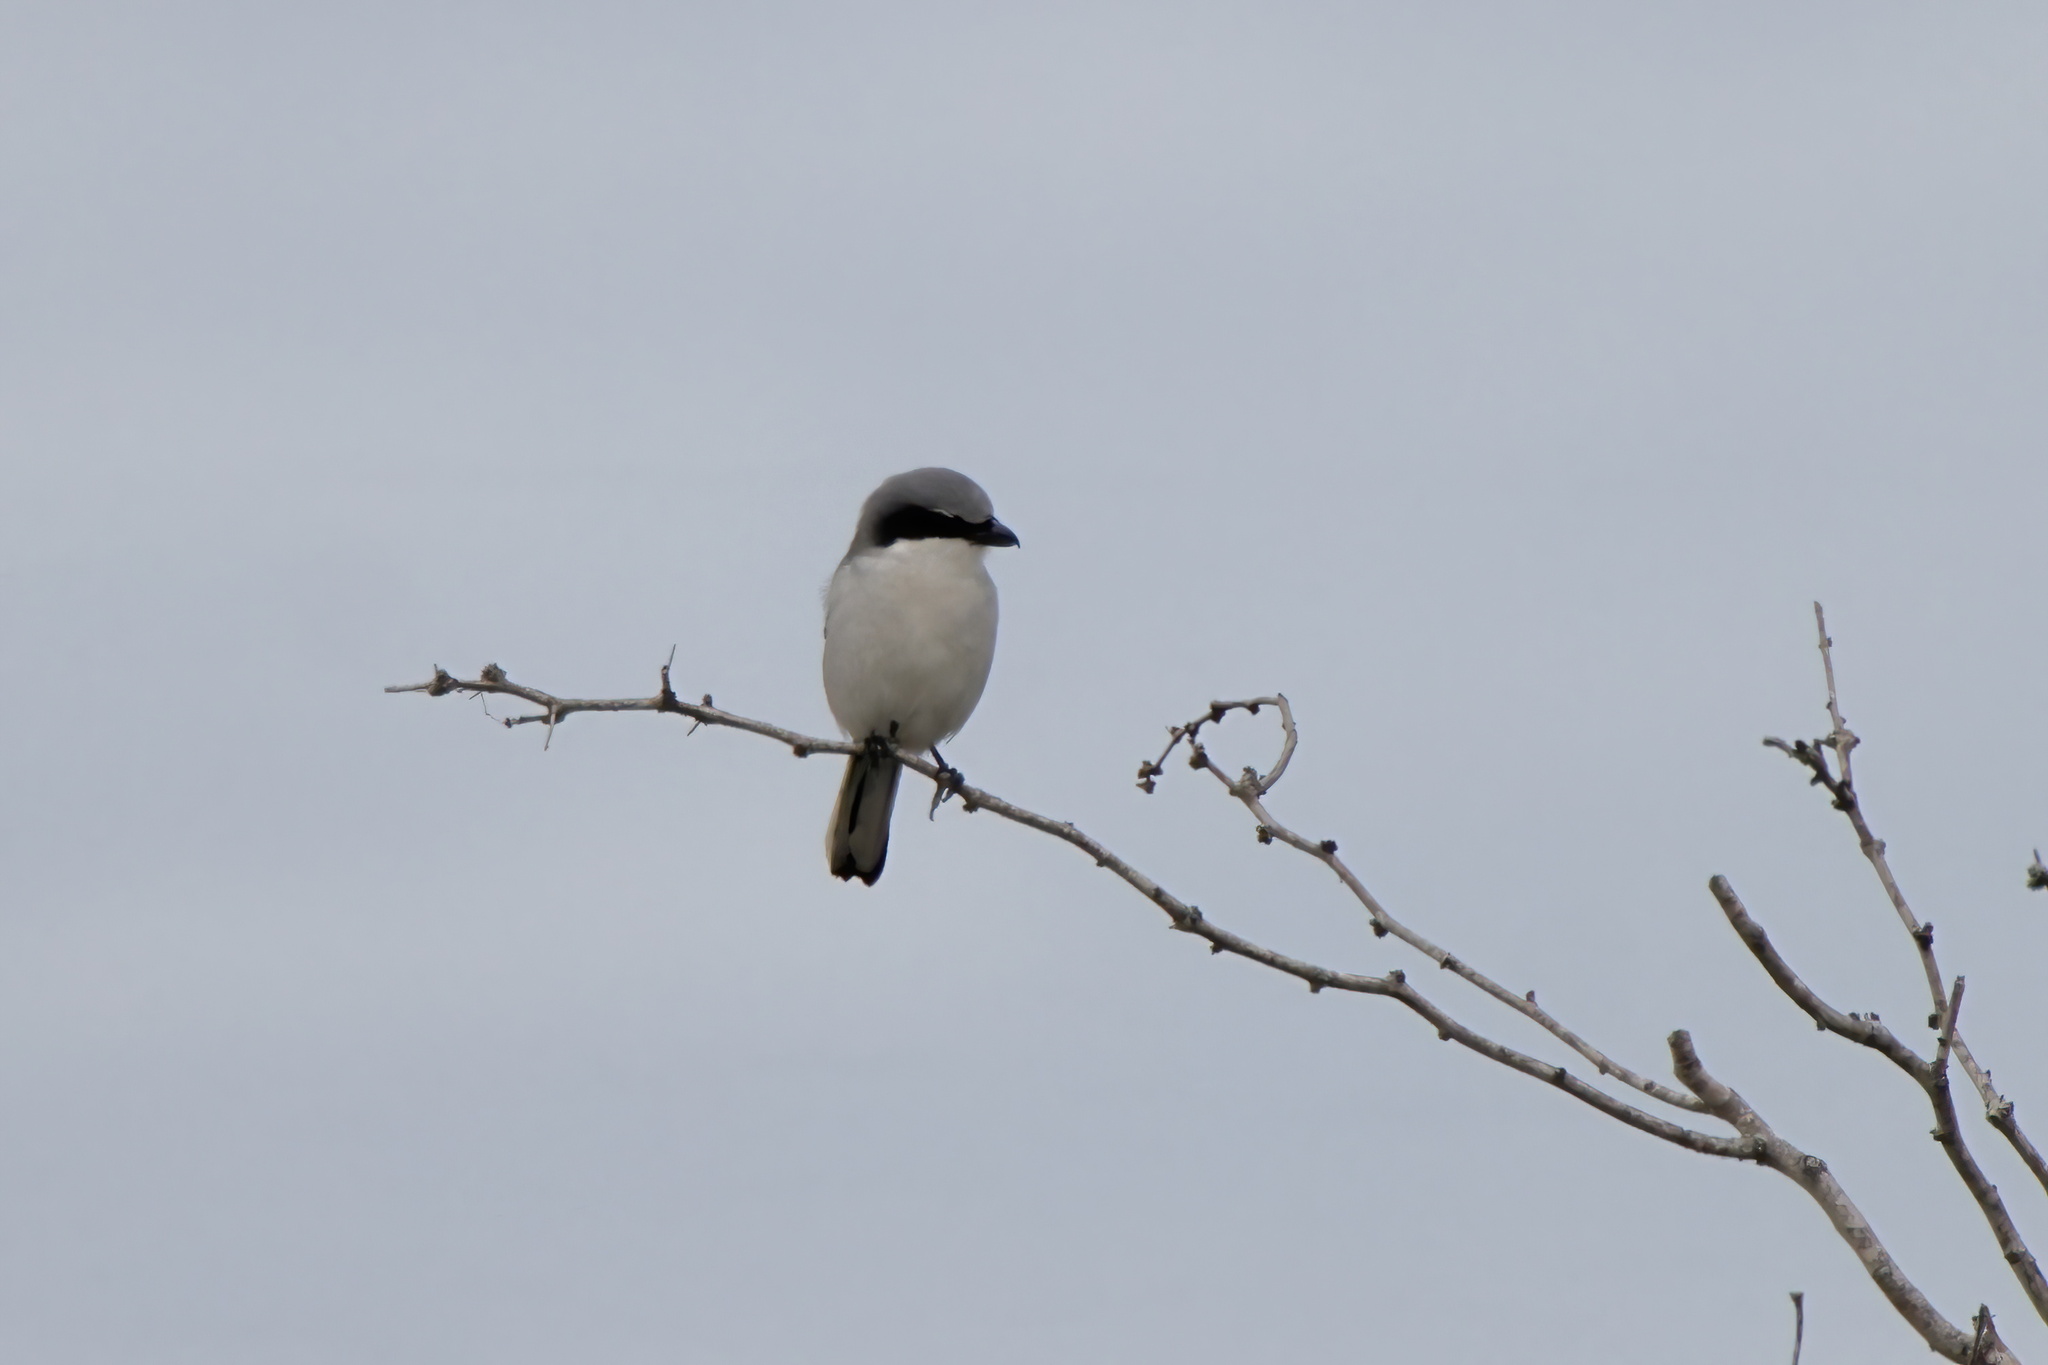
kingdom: Animalia
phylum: Chordata
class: Aves
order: Passeriformes
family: Laniidae
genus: Lanius
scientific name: Lanius ludovicianus
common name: Loggerhead shrike
